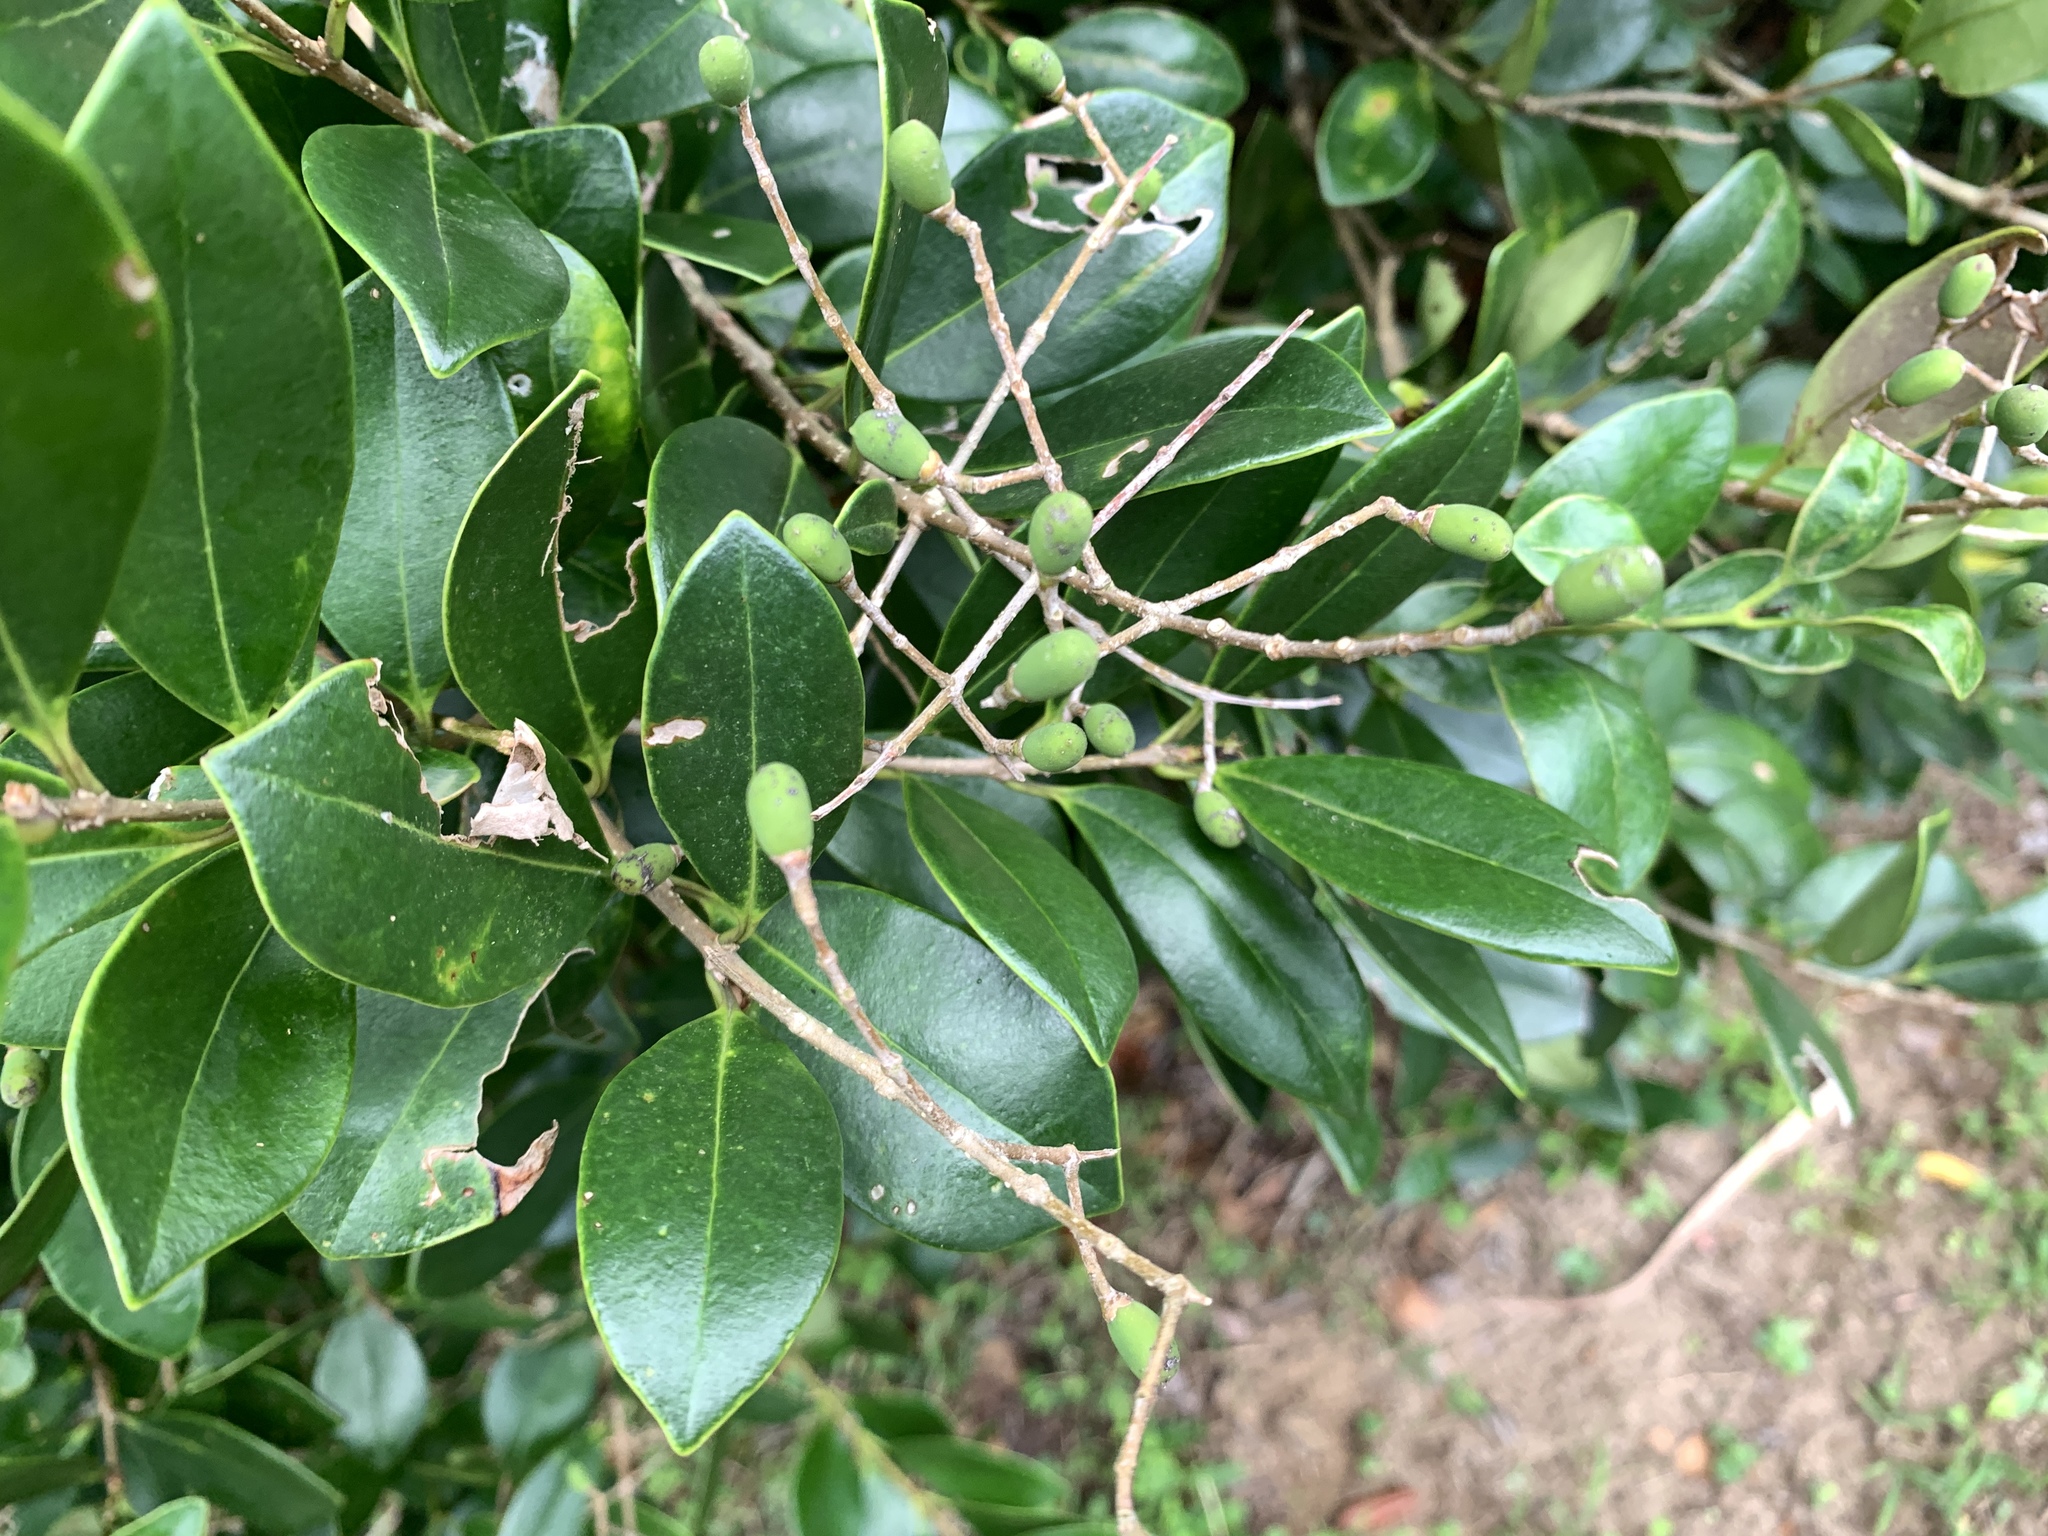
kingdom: Plantae
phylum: Tracheophyta
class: Magnoliopsida
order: Lamiales
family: Oleaceae
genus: Ligustrum
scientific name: Ligustrum liukiuense
